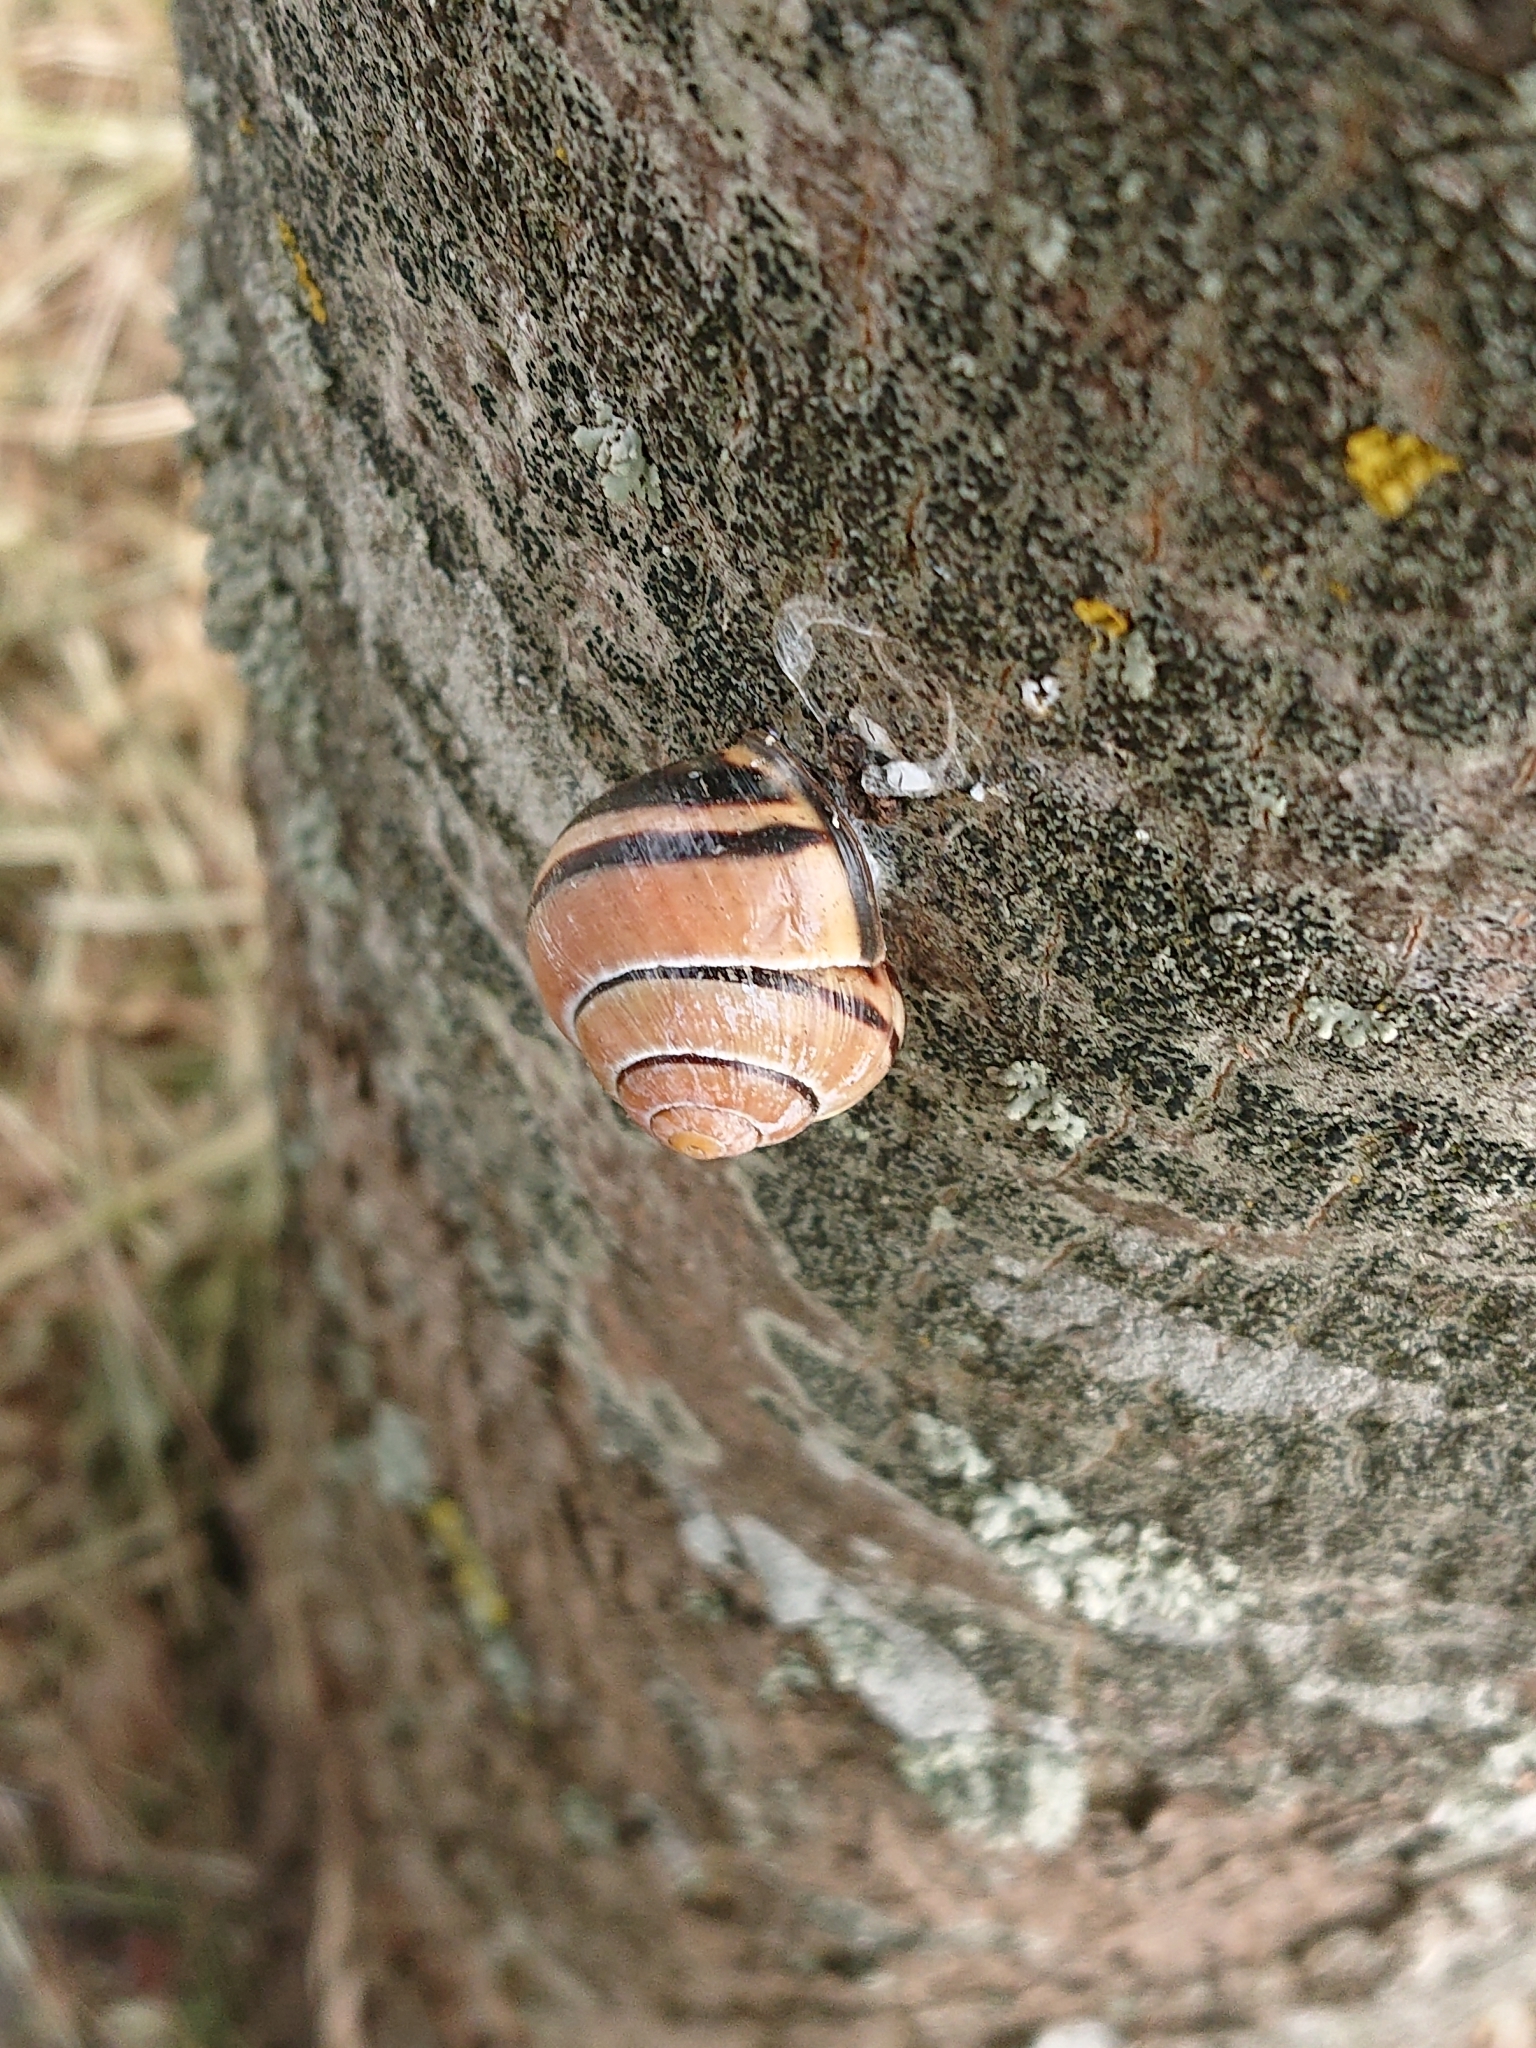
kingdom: Animalia
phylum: Mollusca
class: Gastropoda
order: Stylommatophora
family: Helicidae
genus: Cepaea
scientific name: Cepaea nemoralis
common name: Grovesnail
